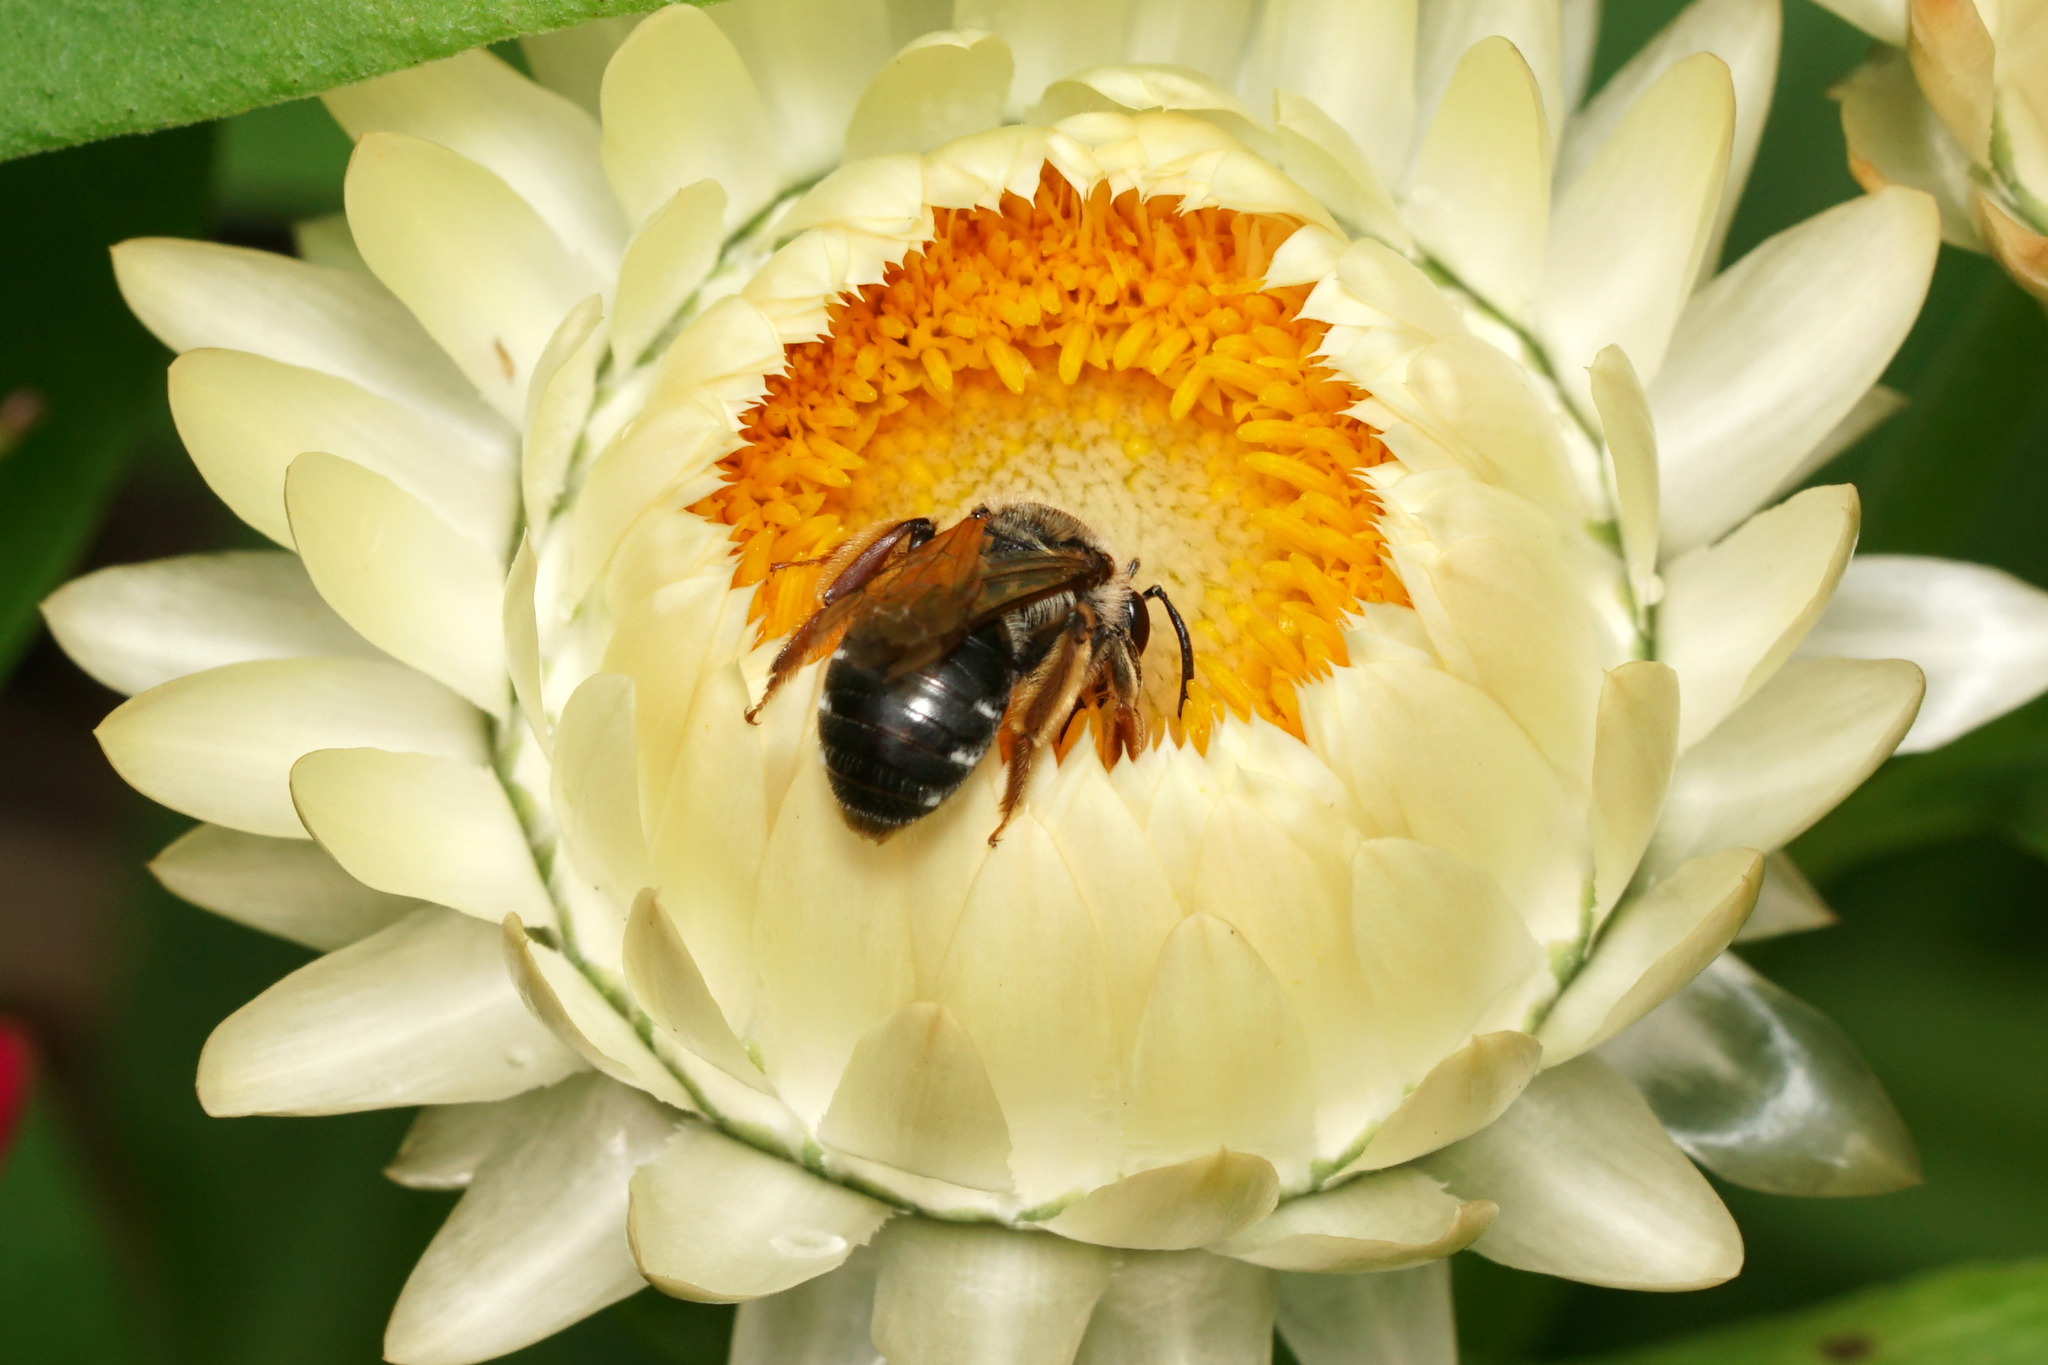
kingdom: Animalia
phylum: Arthropoda
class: Insecta
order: Hymenoptera
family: Andrenidae
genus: Andrena
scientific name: Andrena
